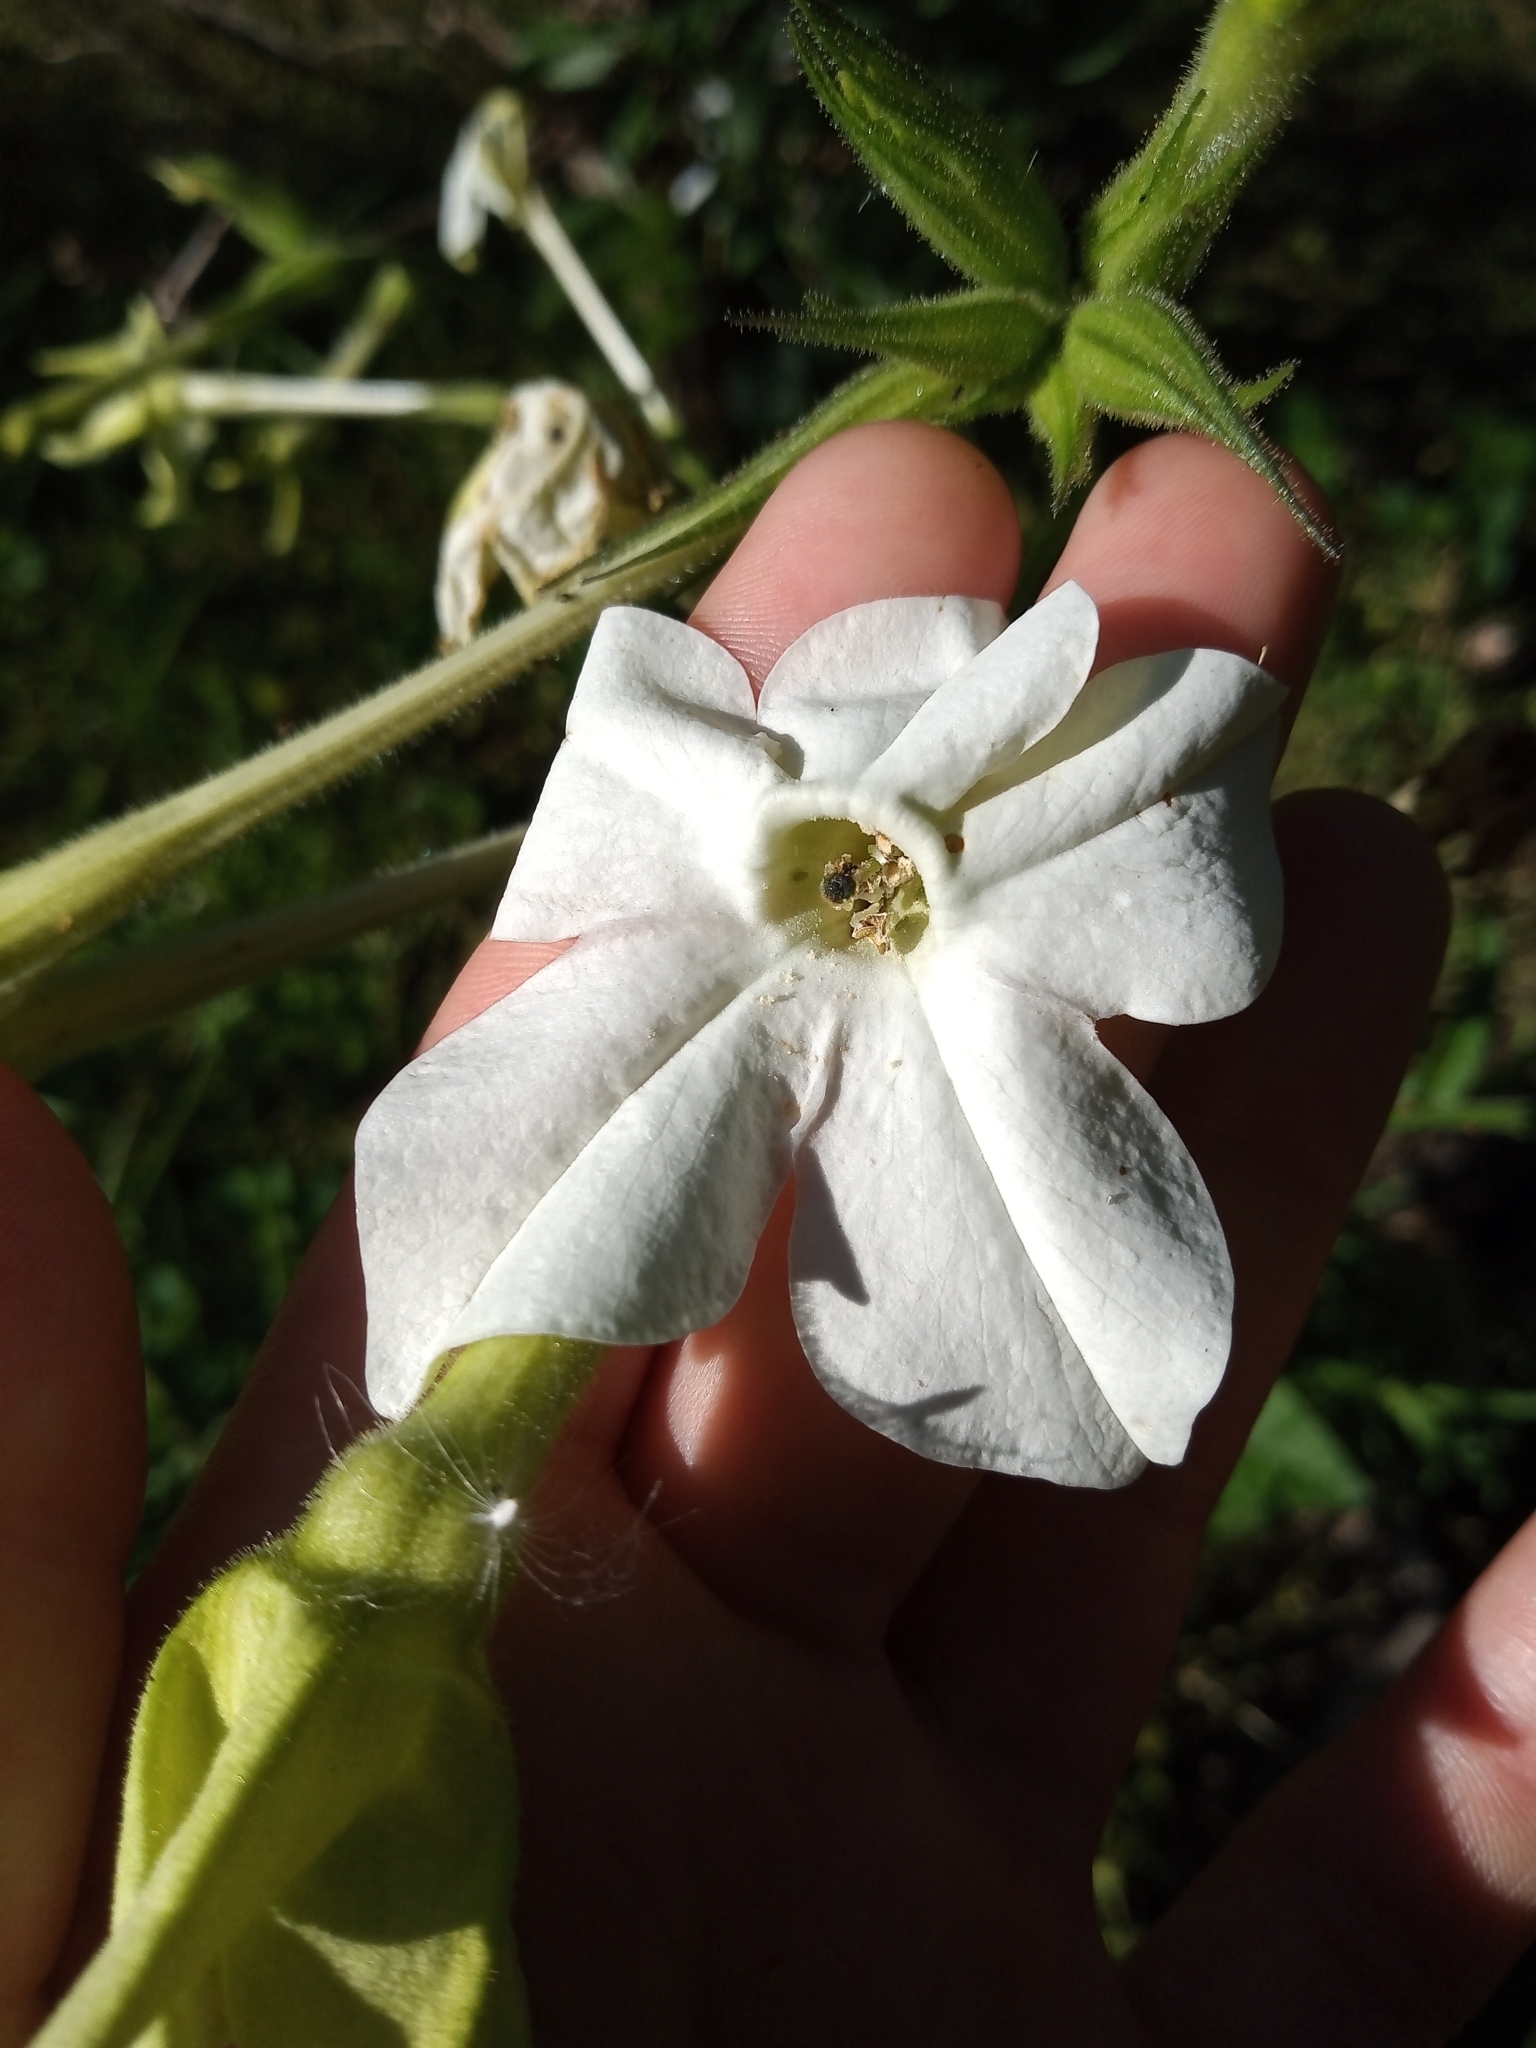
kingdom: Plantae
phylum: Tracheophyta
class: Magnoliopsida
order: Solanales
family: Solanaceae
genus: Nicotiana
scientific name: Nicotiana alata
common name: Jasmine tobacco
